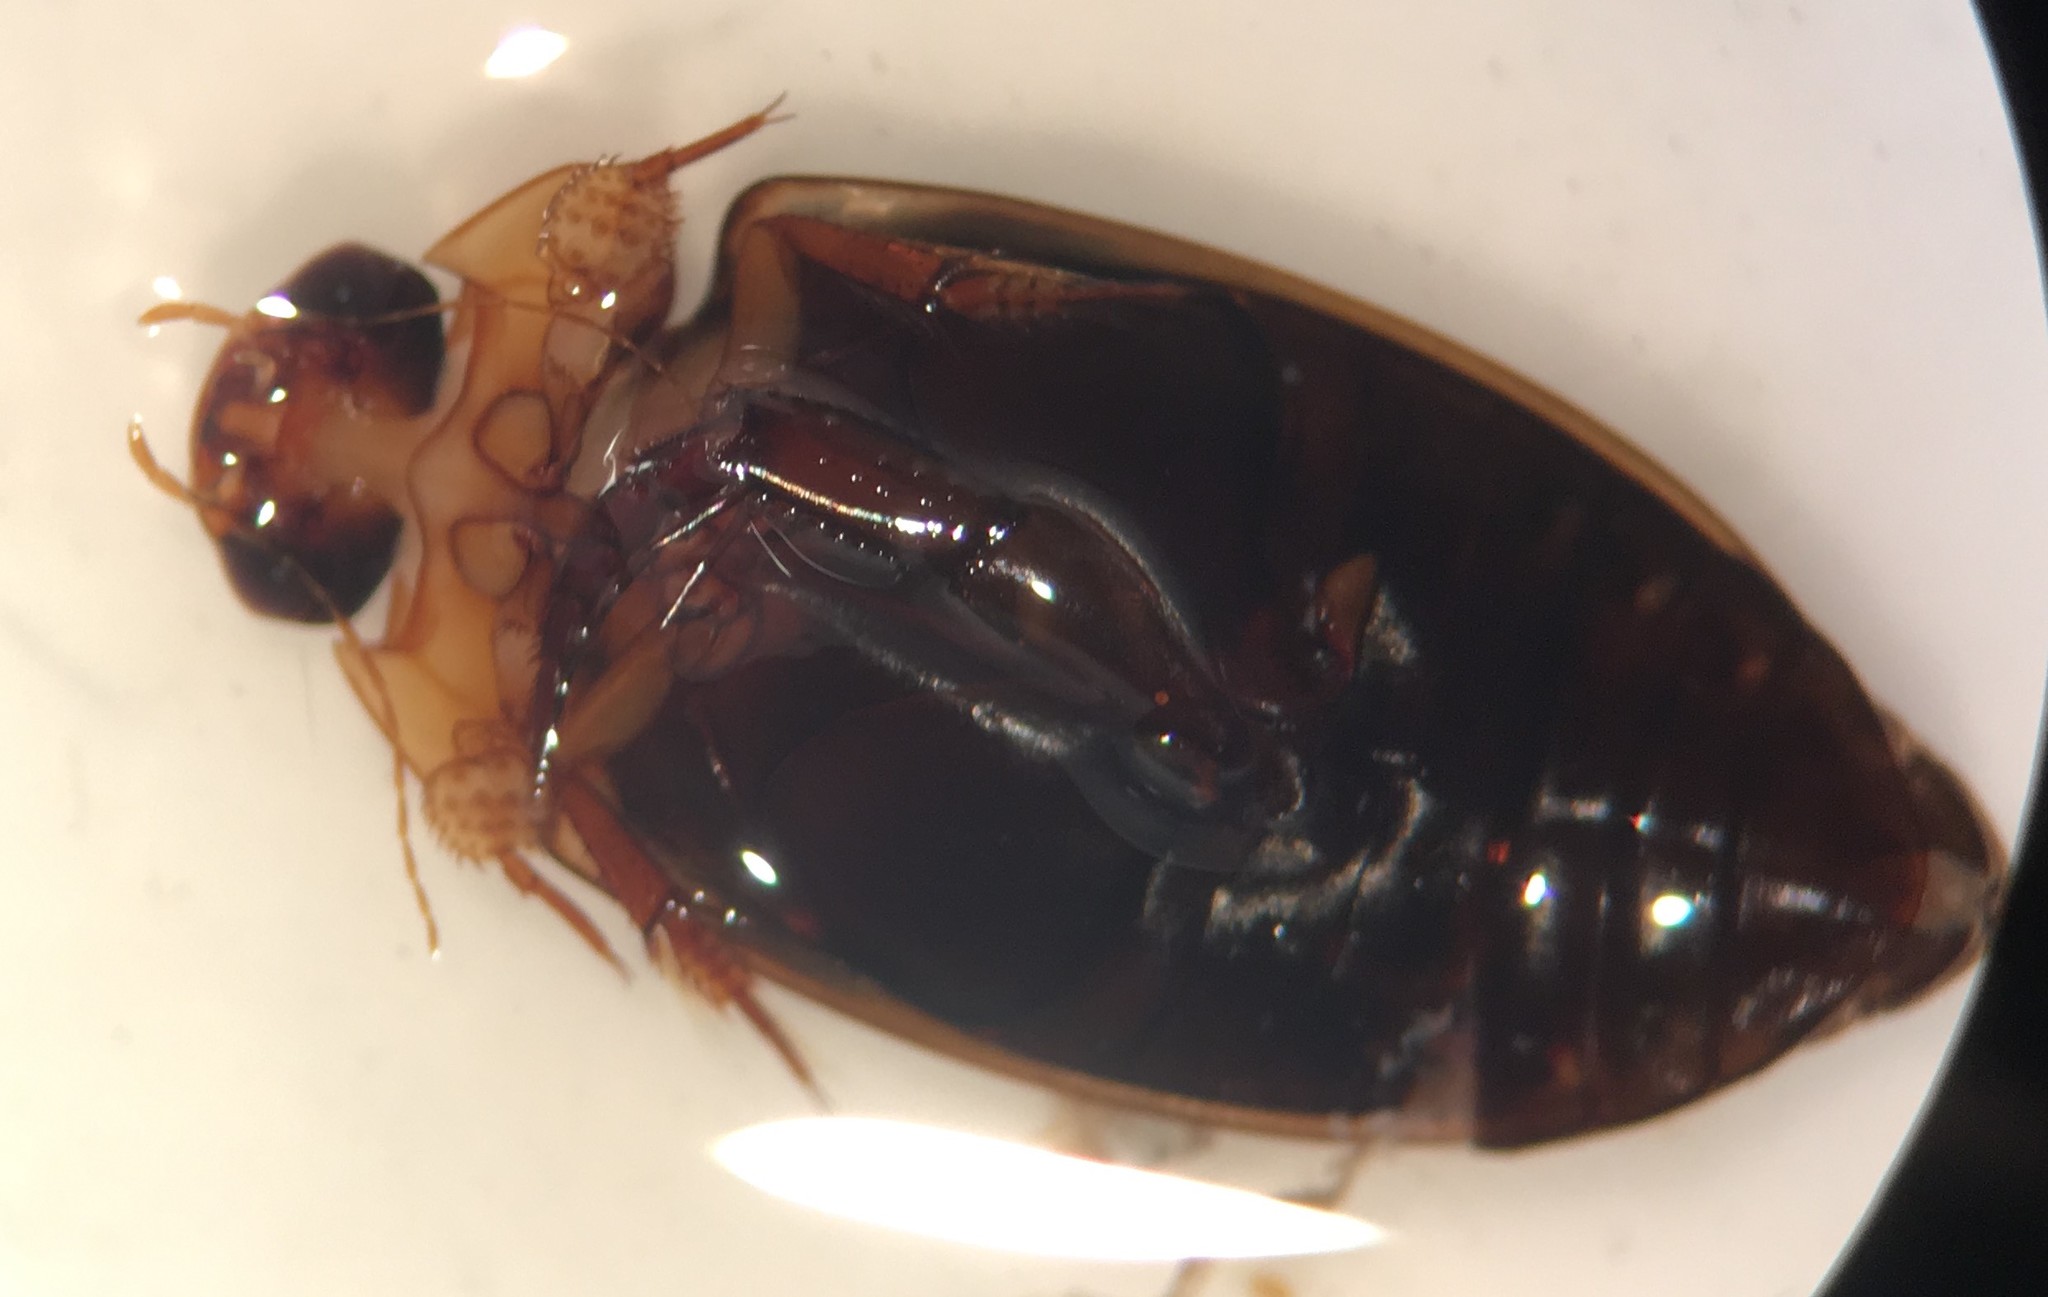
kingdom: Animalia
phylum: Arthropoda
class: Insecta
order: Coleoptera
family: Dytiscidae
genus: Hydaticus
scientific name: Hydaticus bimarginatus
